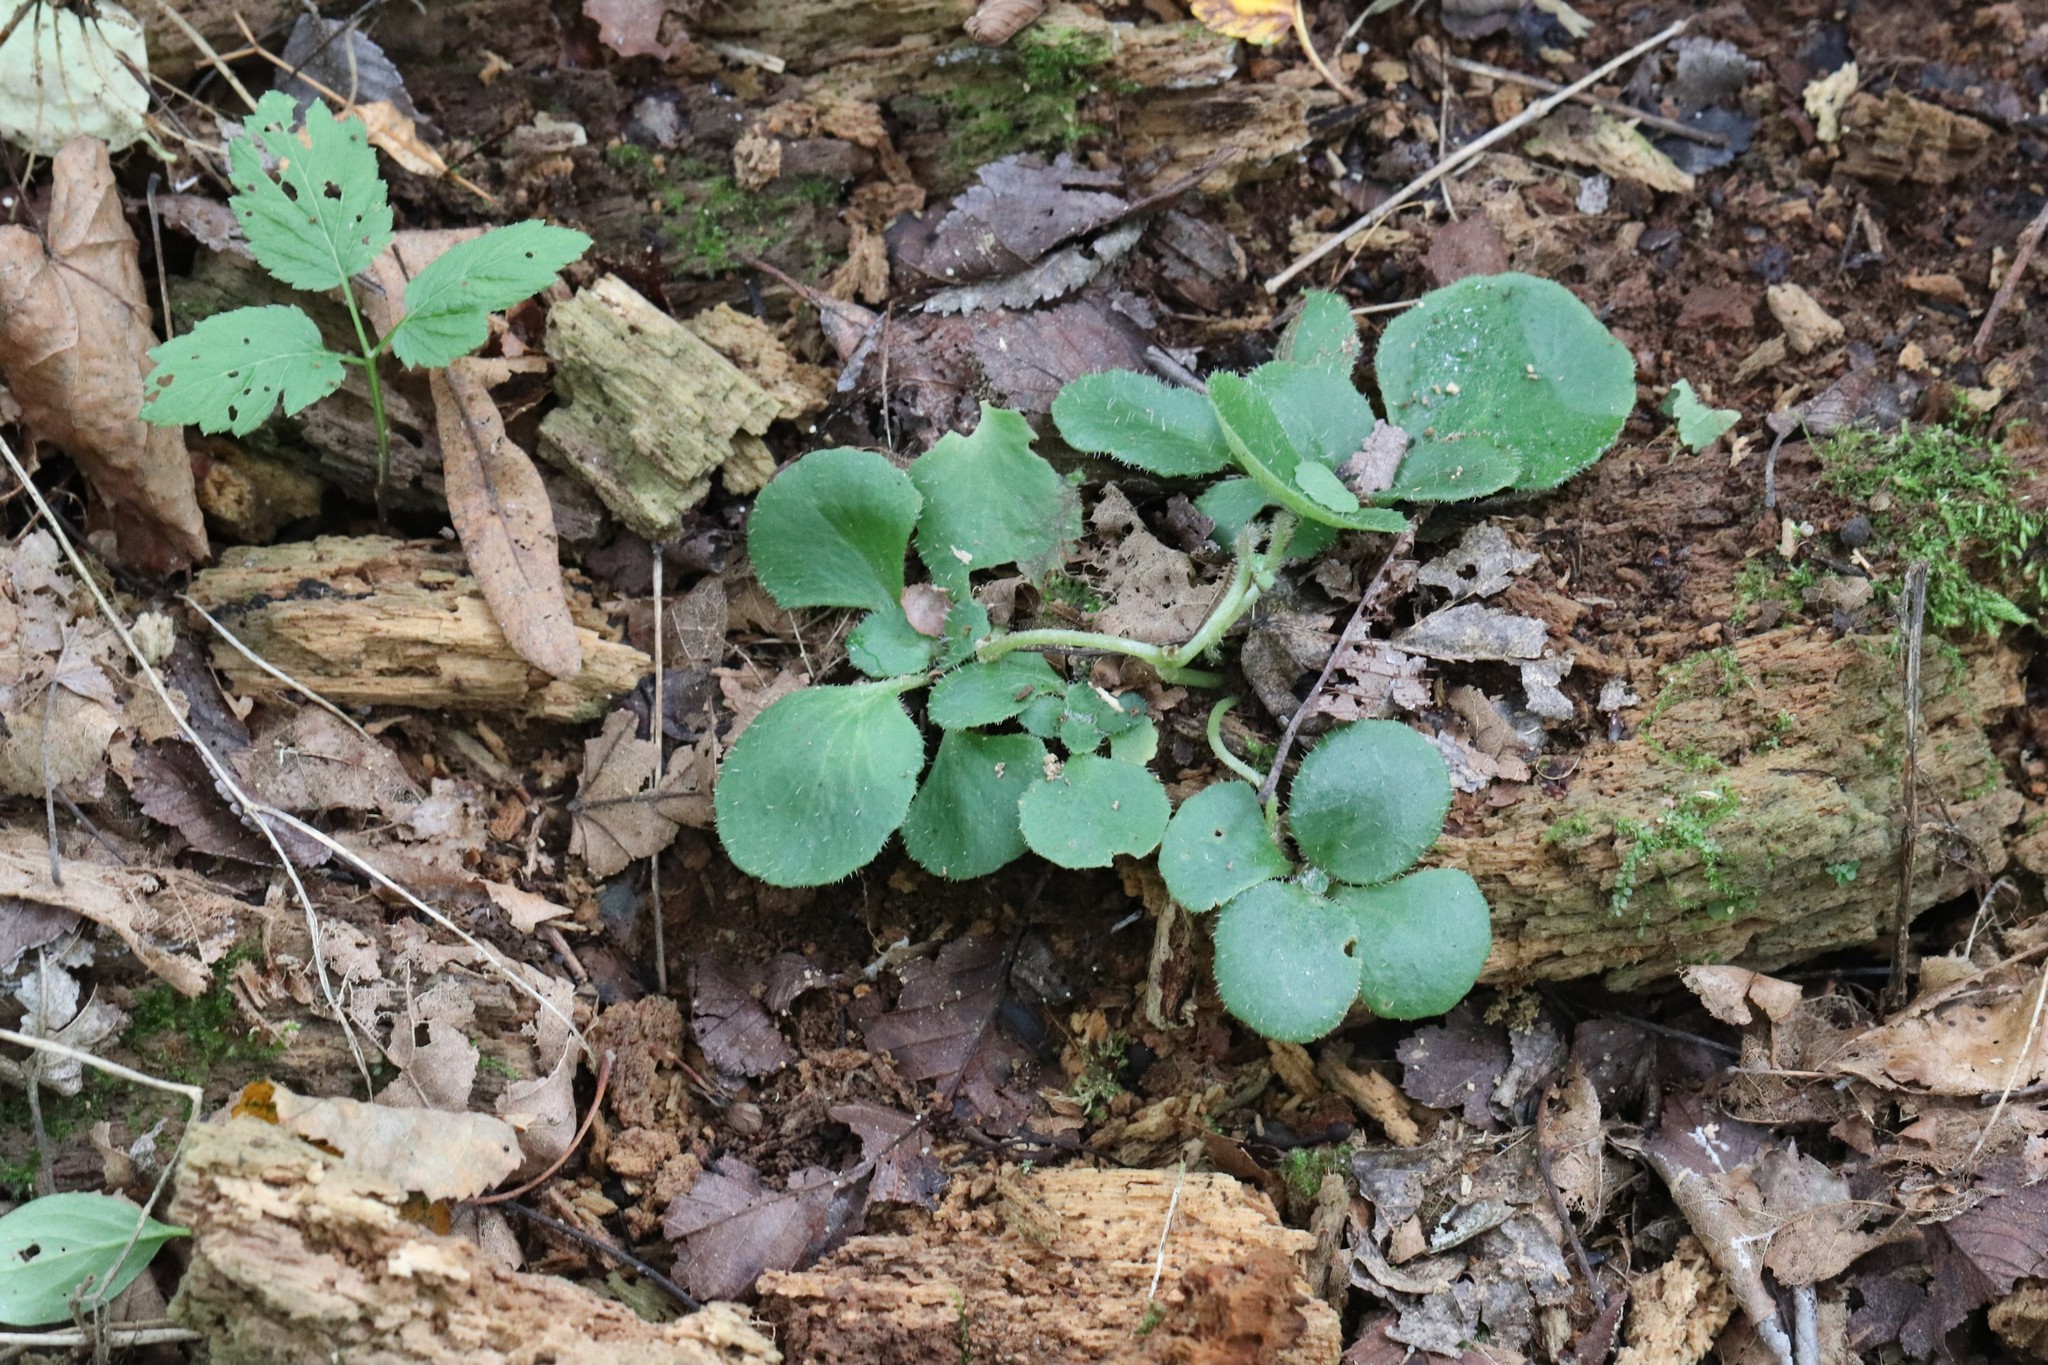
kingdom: Plantae
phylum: Tracheophyta
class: Magnoliopsida
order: Saxifragales
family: Saxifragaceae
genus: Chrysosplenium
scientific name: Chrysosplenium pilosum
